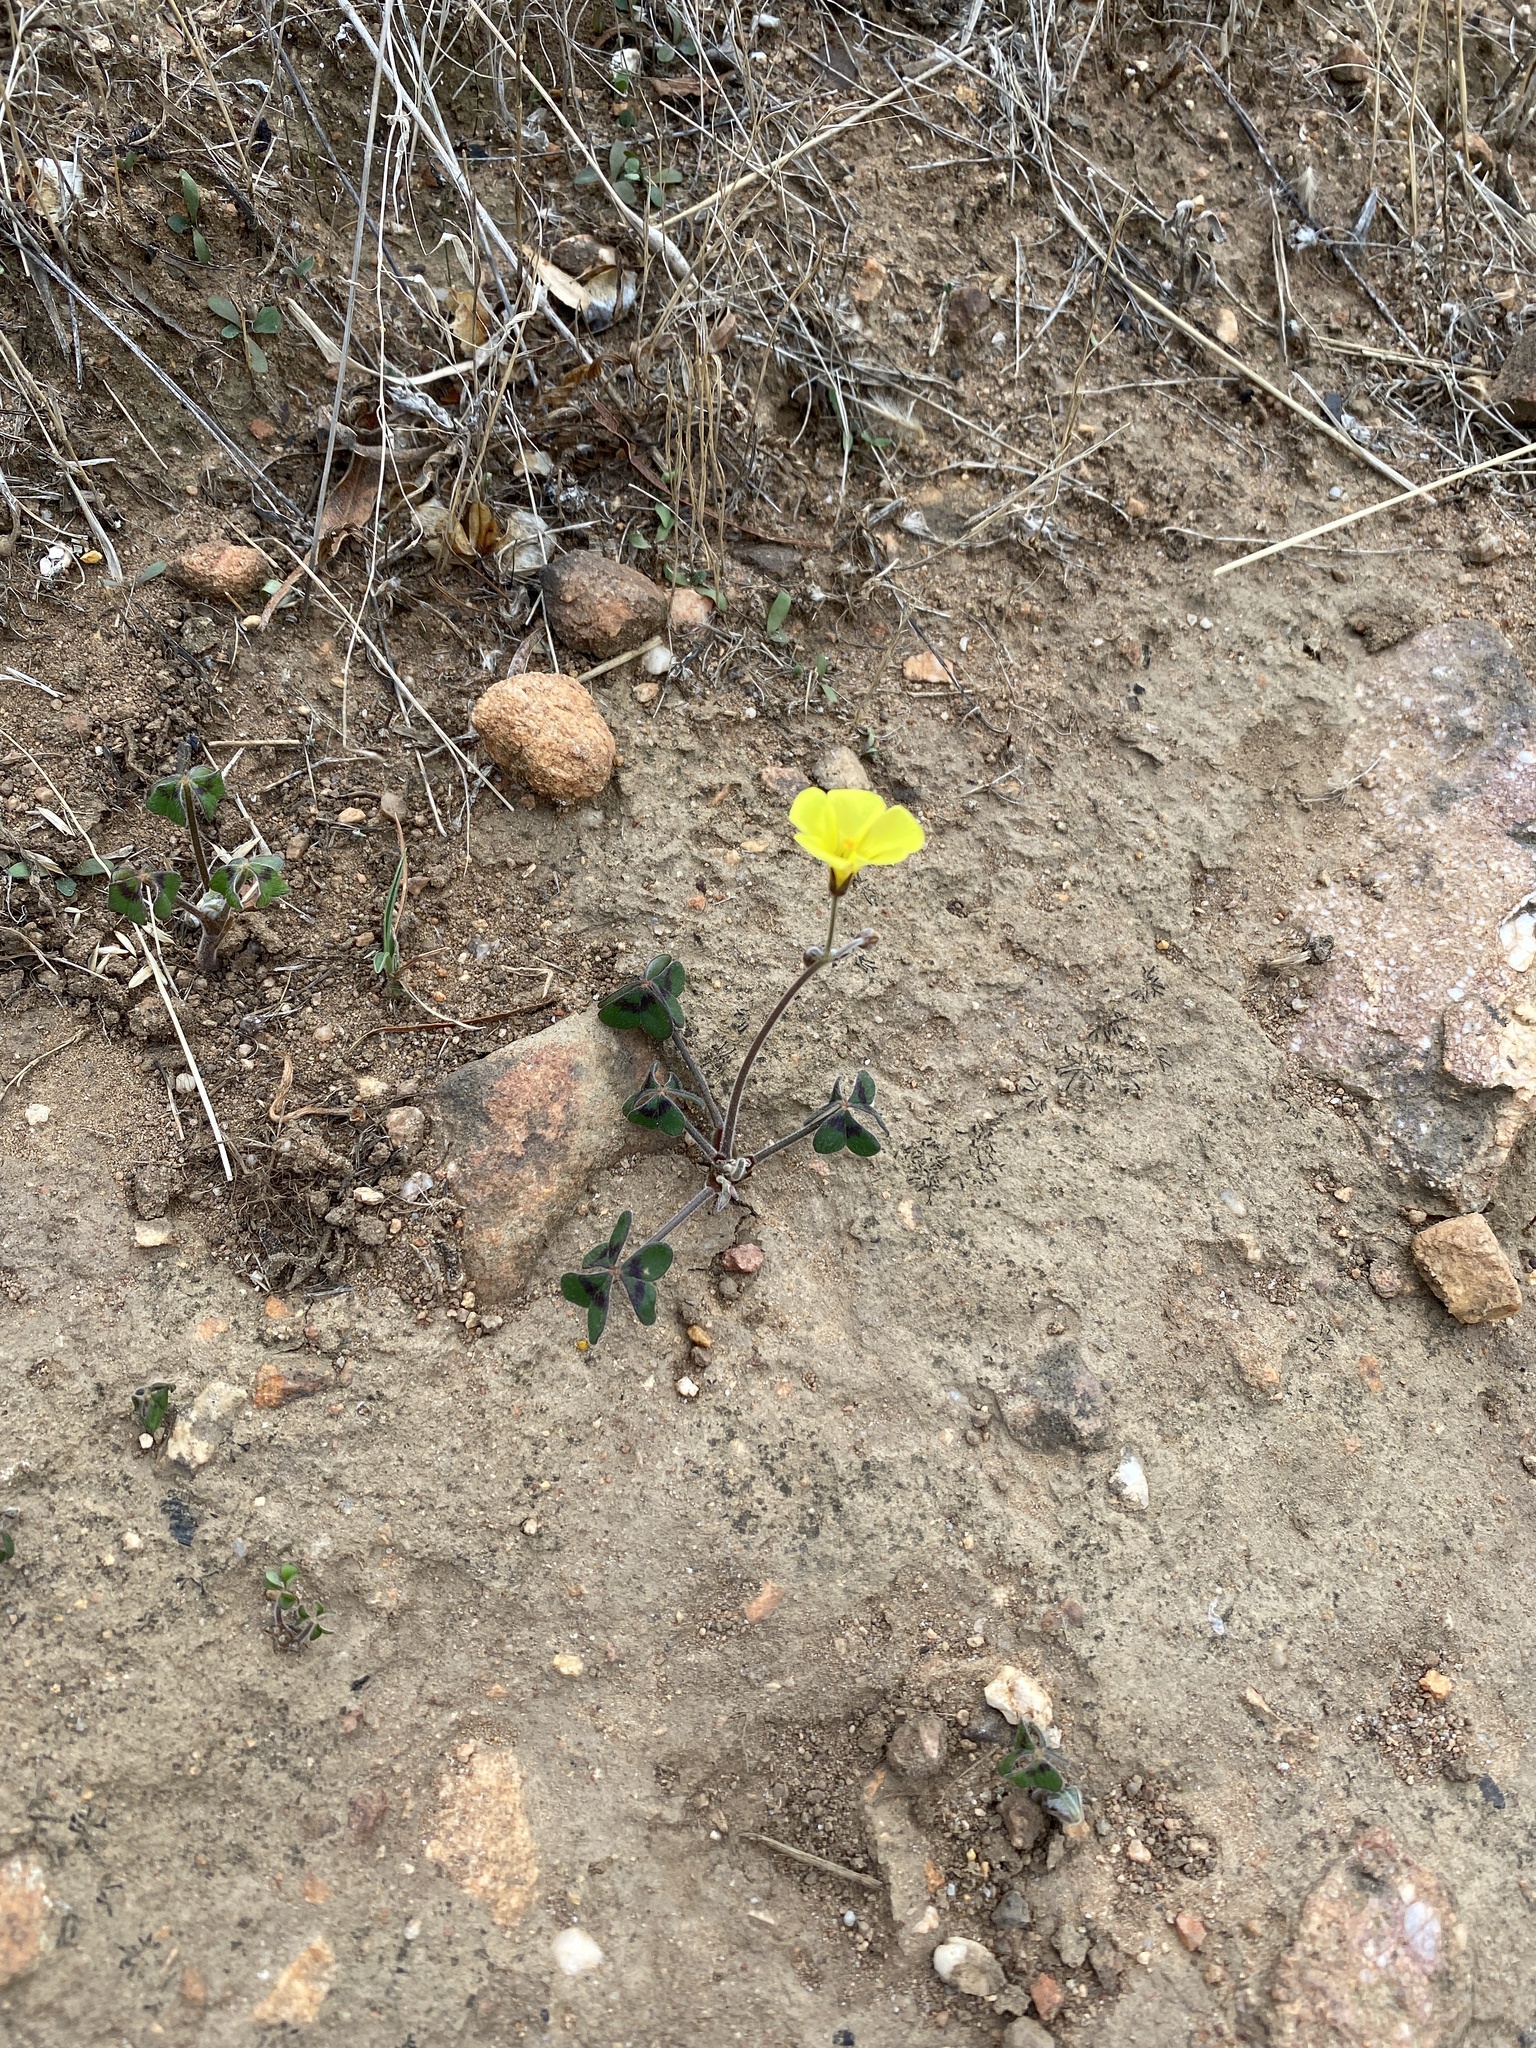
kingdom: Plantae
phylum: Tracheophyta
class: Magnoliopsida
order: Oxalidales
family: Oxalidaceae
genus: Oxalis
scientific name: Oxalis pes-caprae
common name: Bermuda-buttercup
